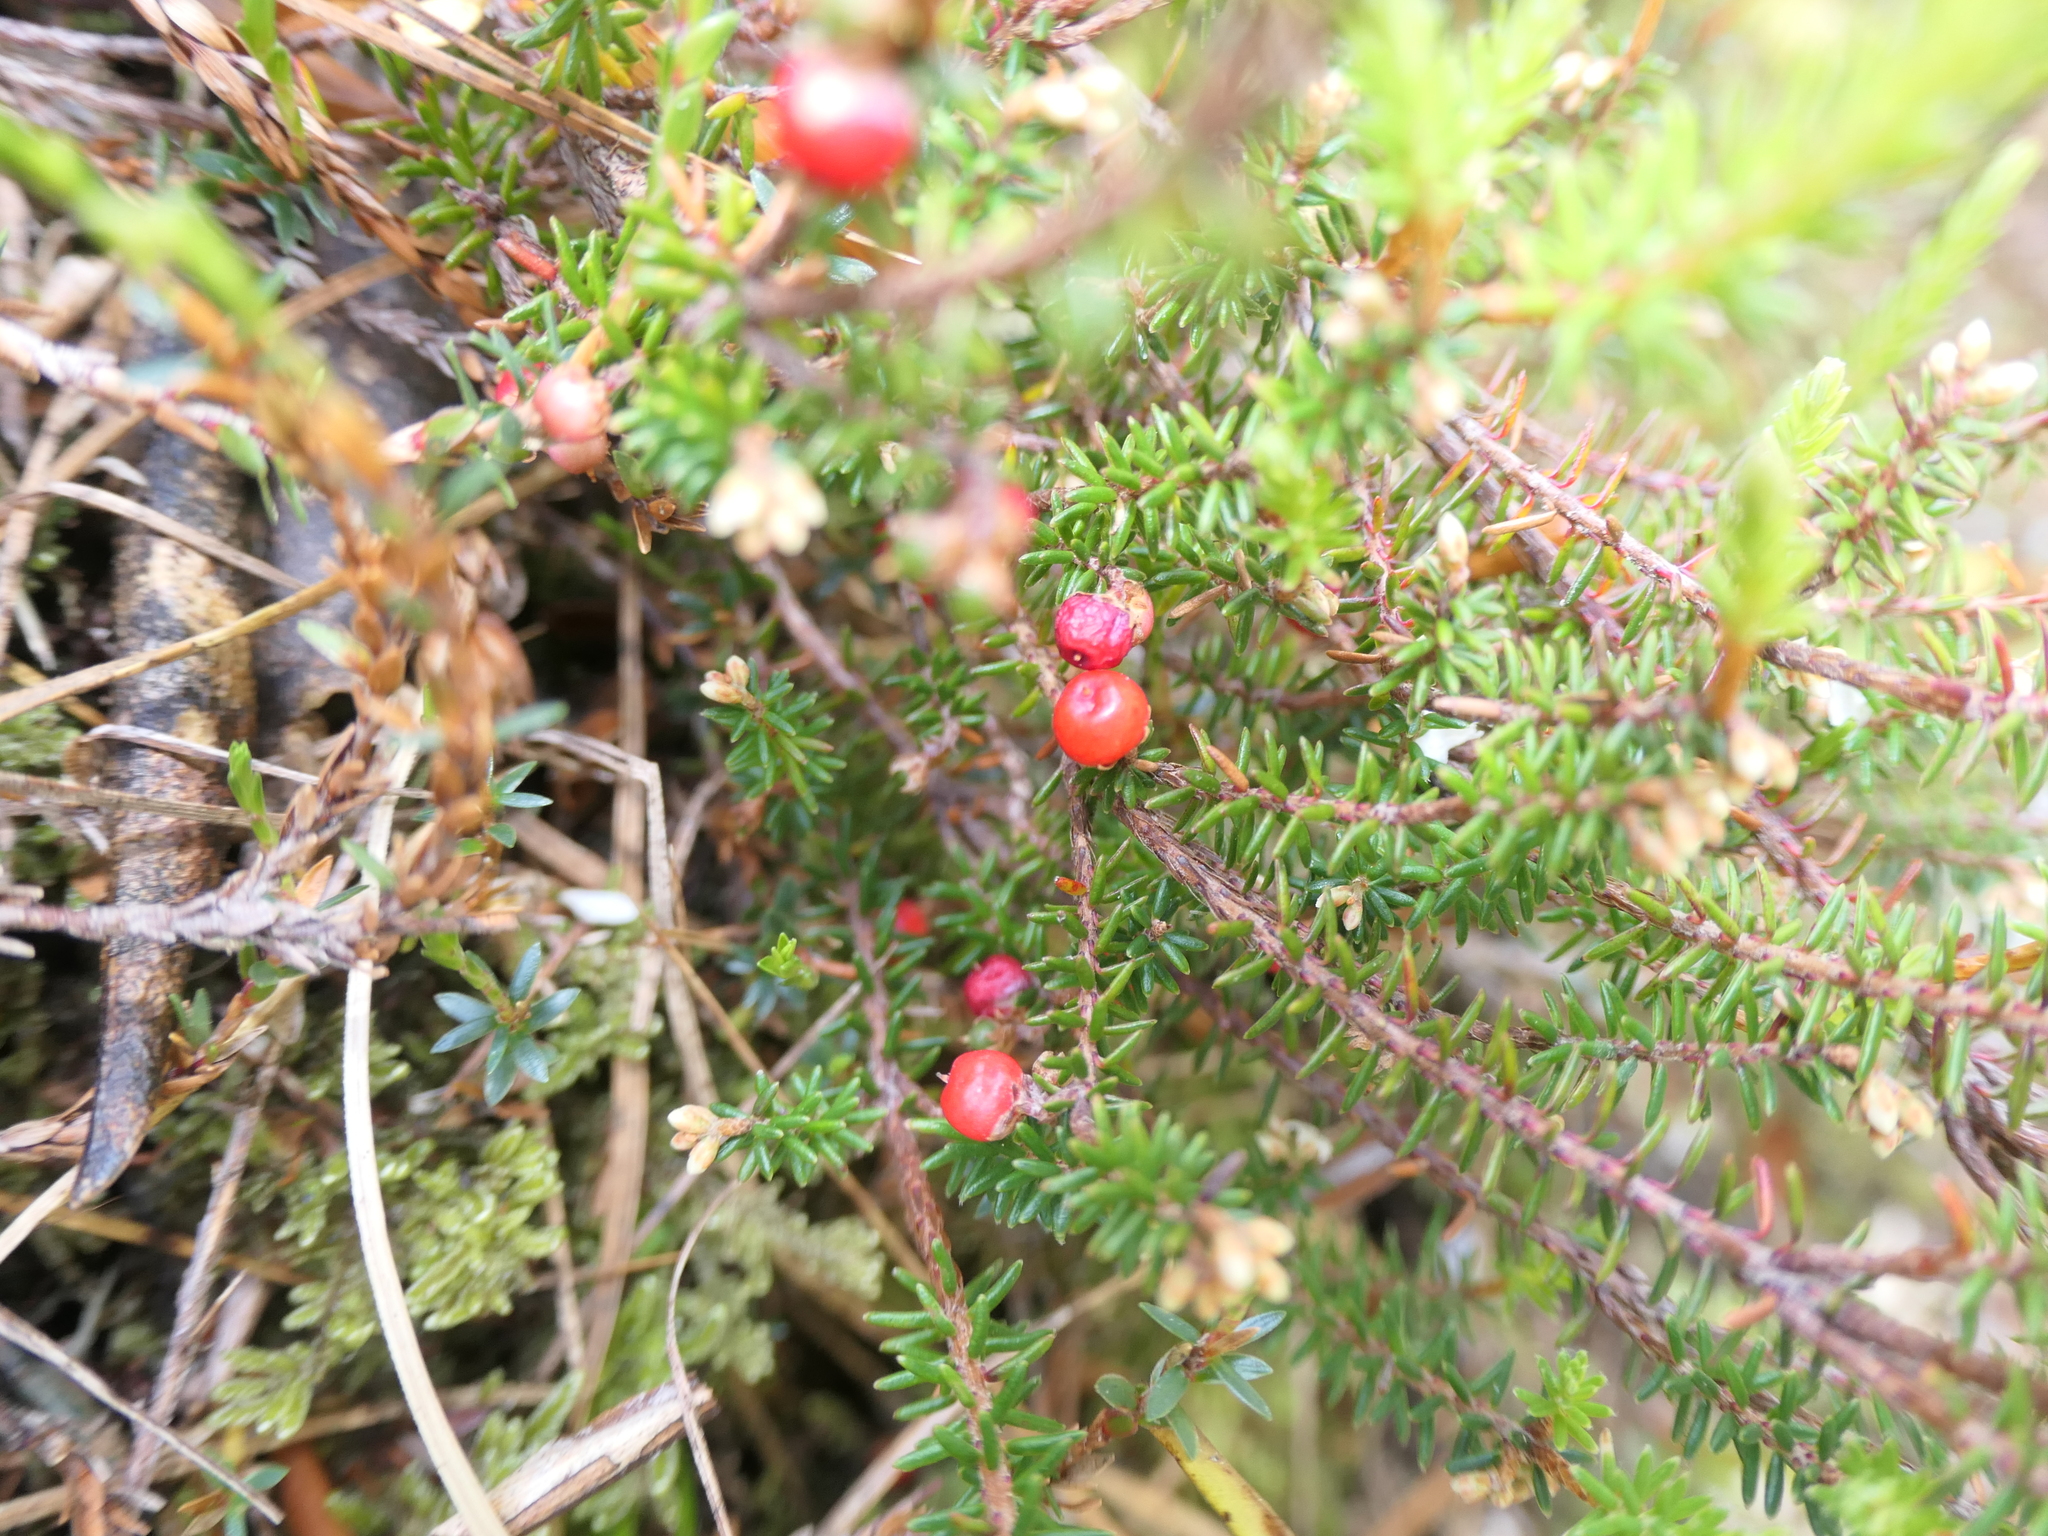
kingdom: Plantae
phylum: Tracheophyta
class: Magnoliopsida
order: Ericales
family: Ericaceae
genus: Androstoma
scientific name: Androstoma empetrifolia
